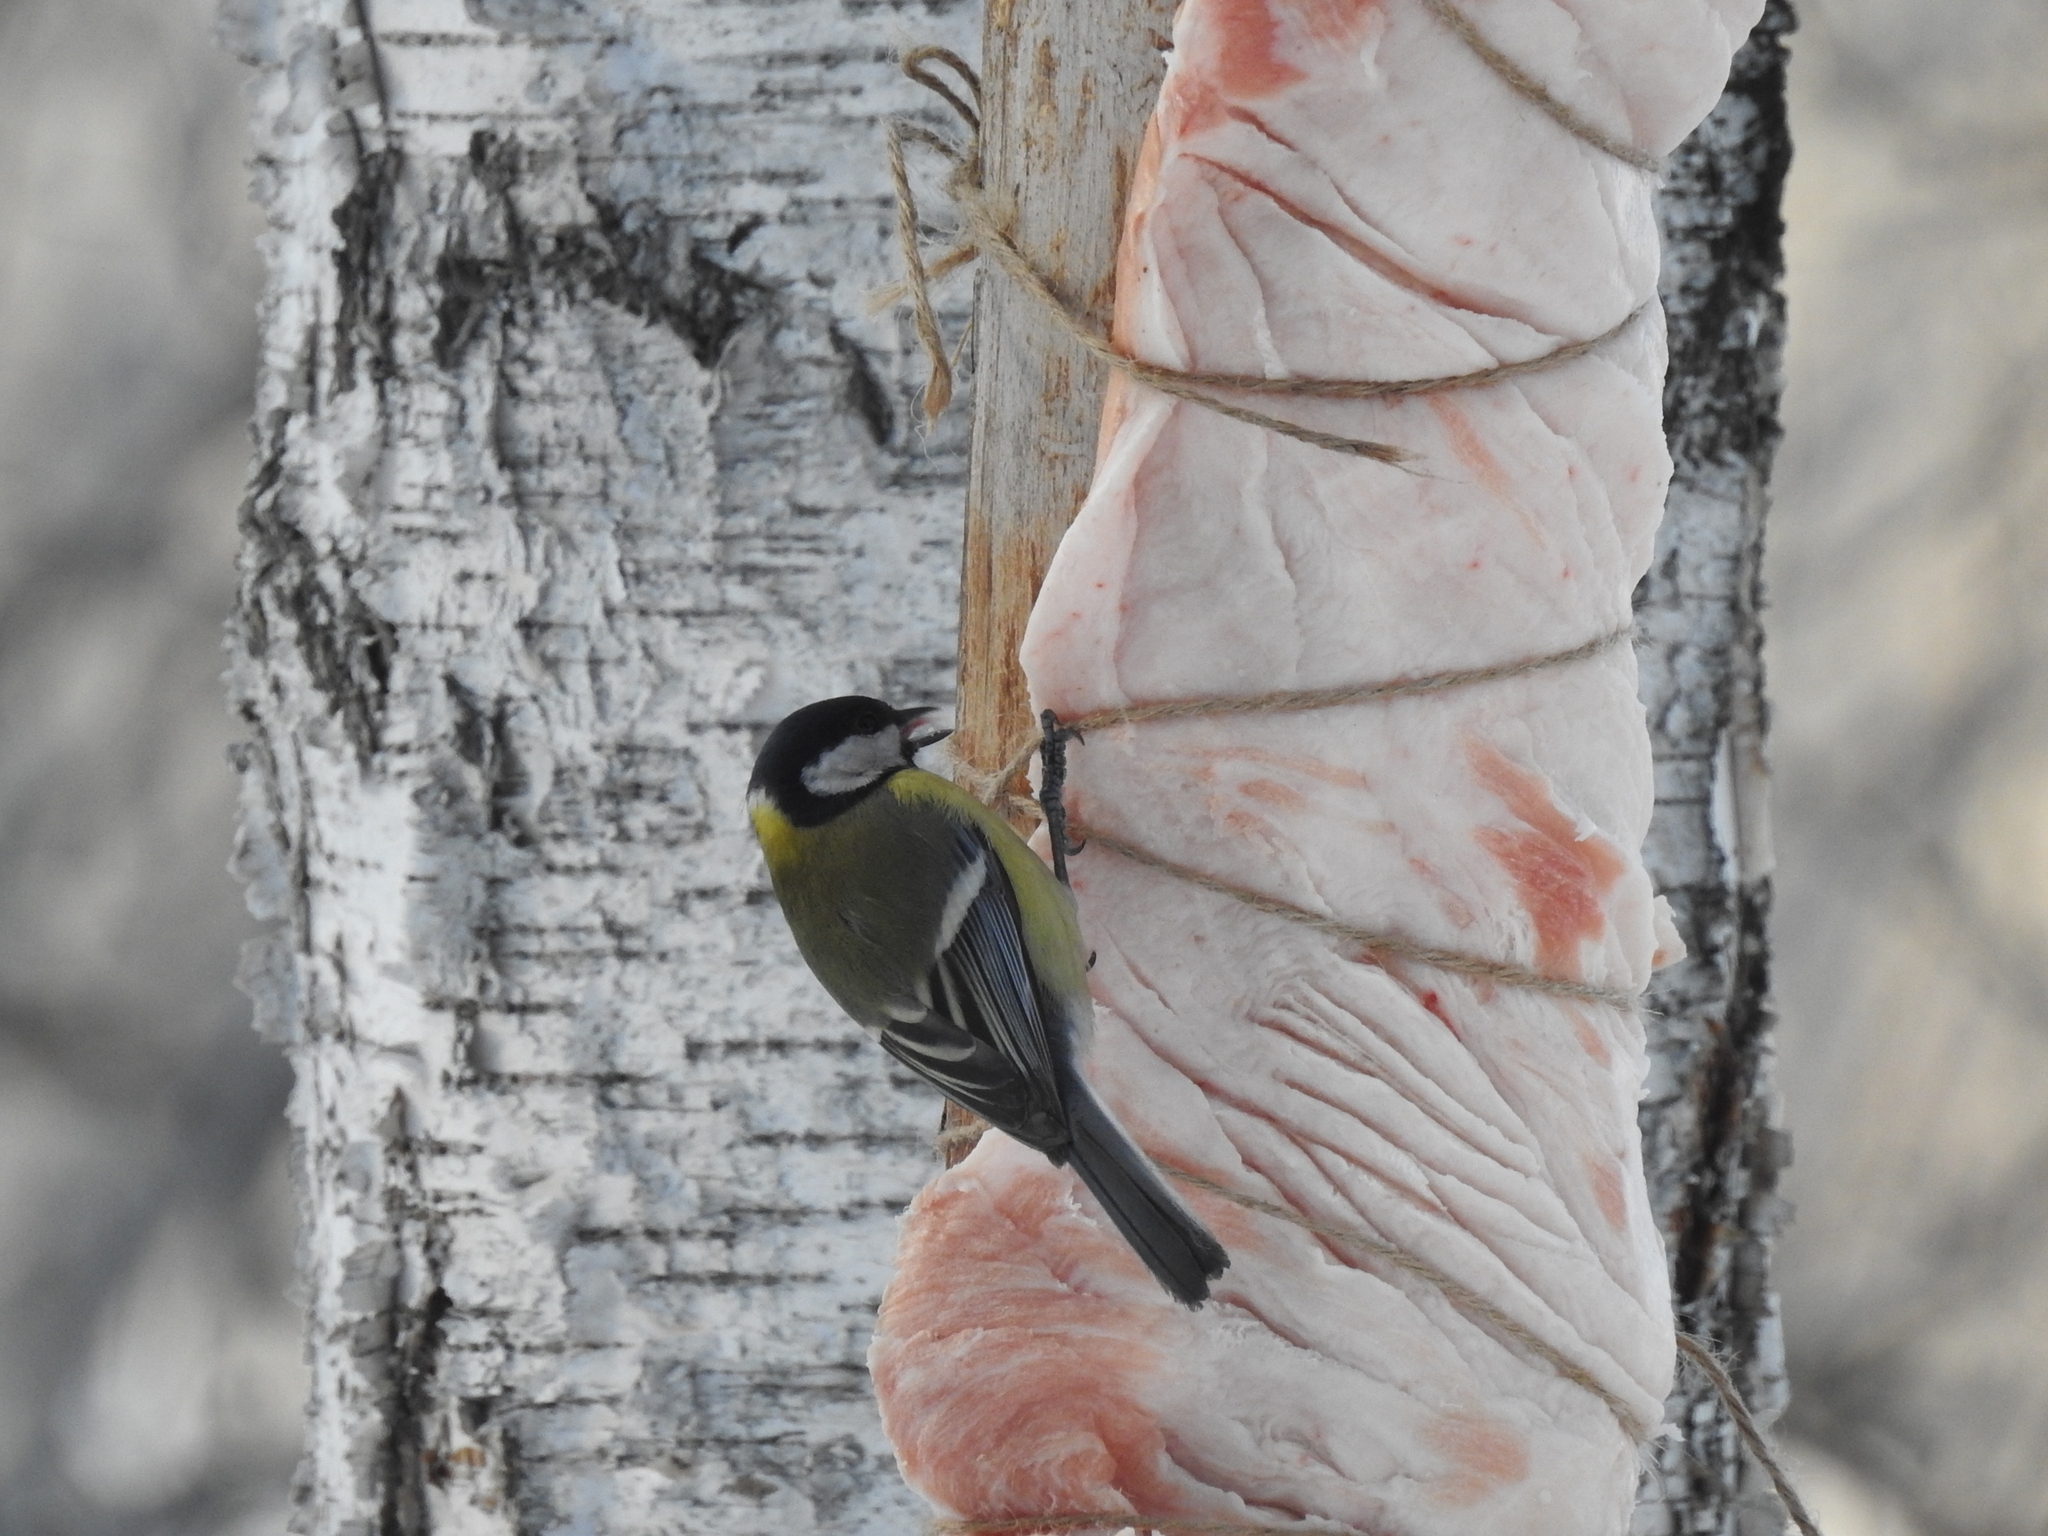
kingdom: Animalia
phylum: Chordata
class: Aves
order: Passeriformes
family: Paridae
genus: Parus
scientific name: Parus major
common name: Great tit
